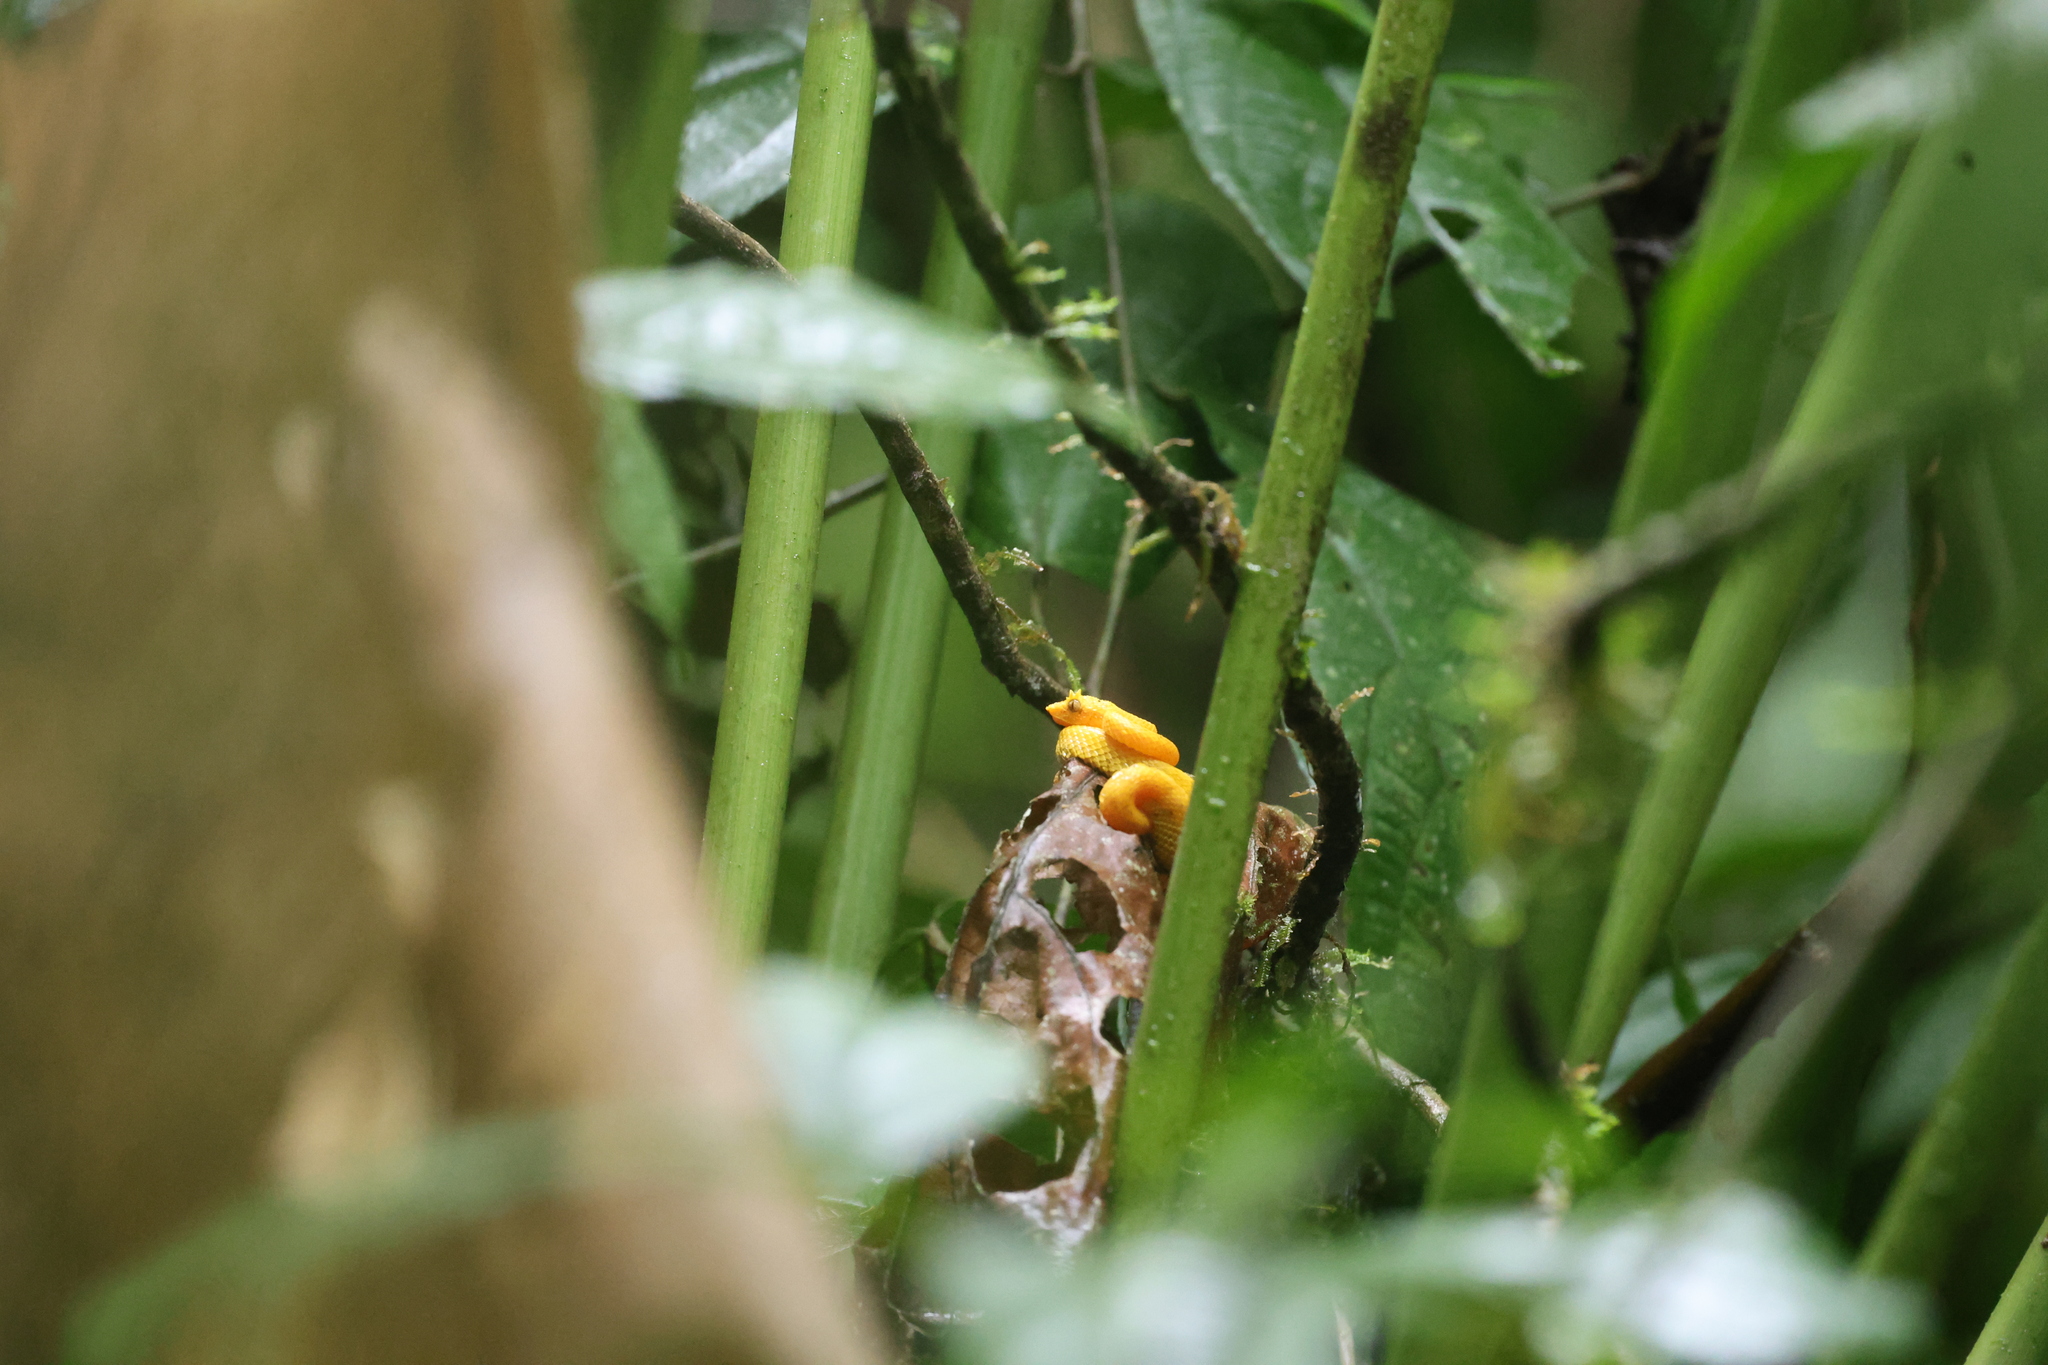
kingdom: Animalia
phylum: Chordata
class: Squamata
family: Viperidae
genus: Bothriechis
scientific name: Bothriechis schlegelii
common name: Eyelash viper
